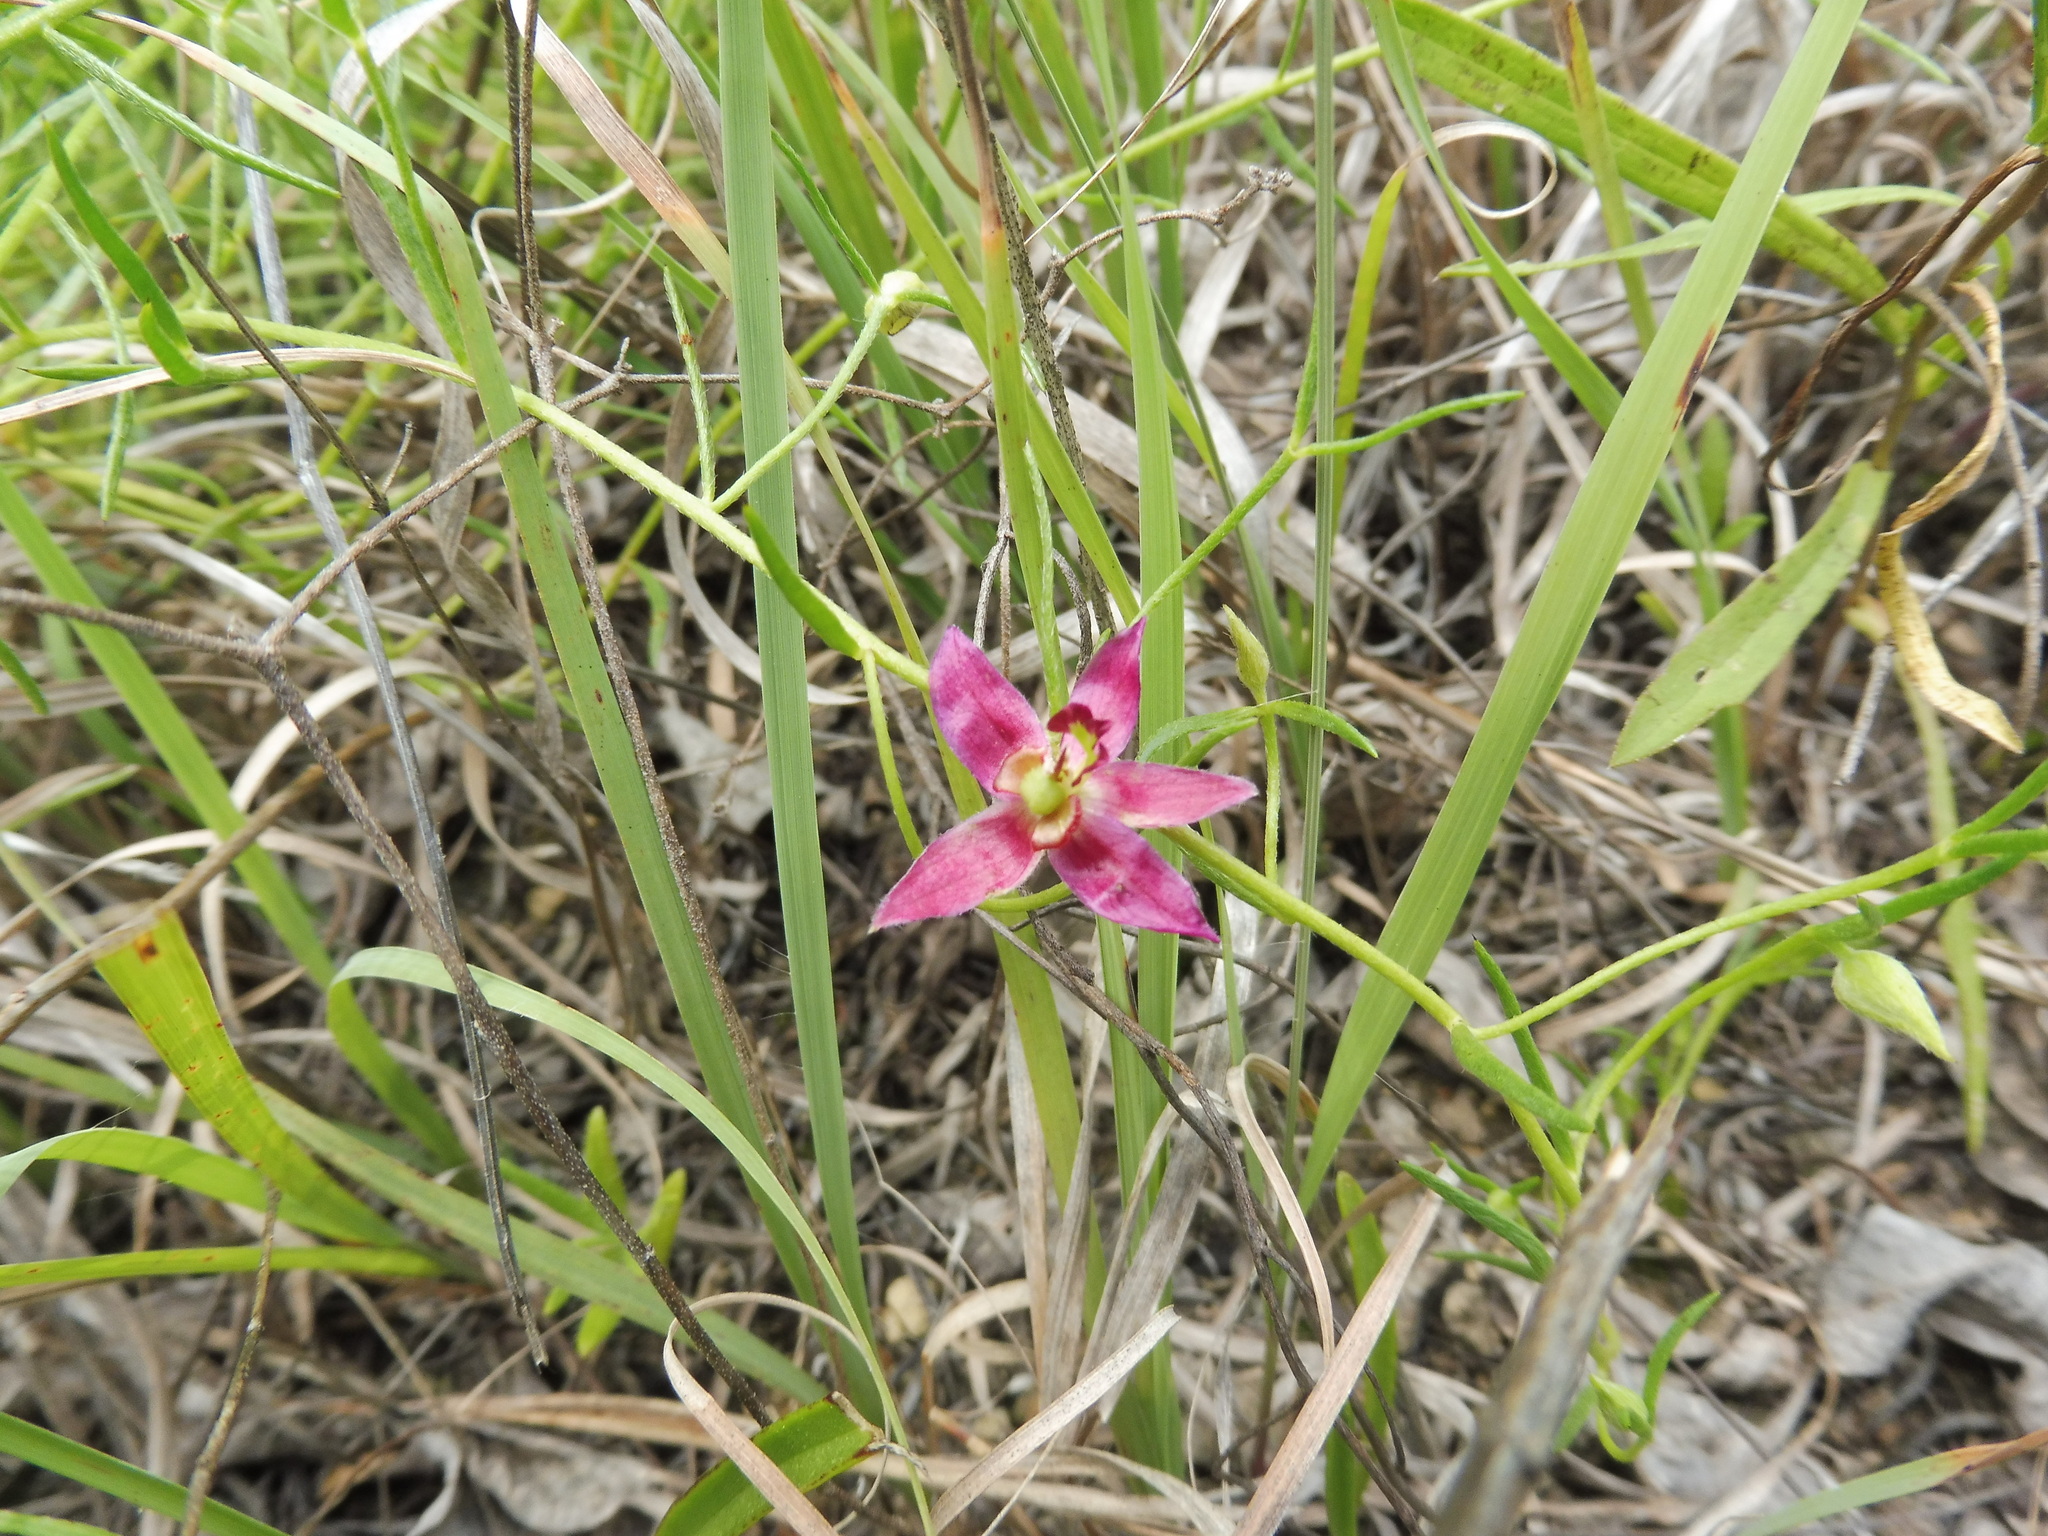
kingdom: Plantae
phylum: Tracheophyta
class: Magnoliopsida
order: Zygophyllales
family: Krameriaceae
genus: Krameria
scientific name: Krameria lanceolata
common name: Ratany
